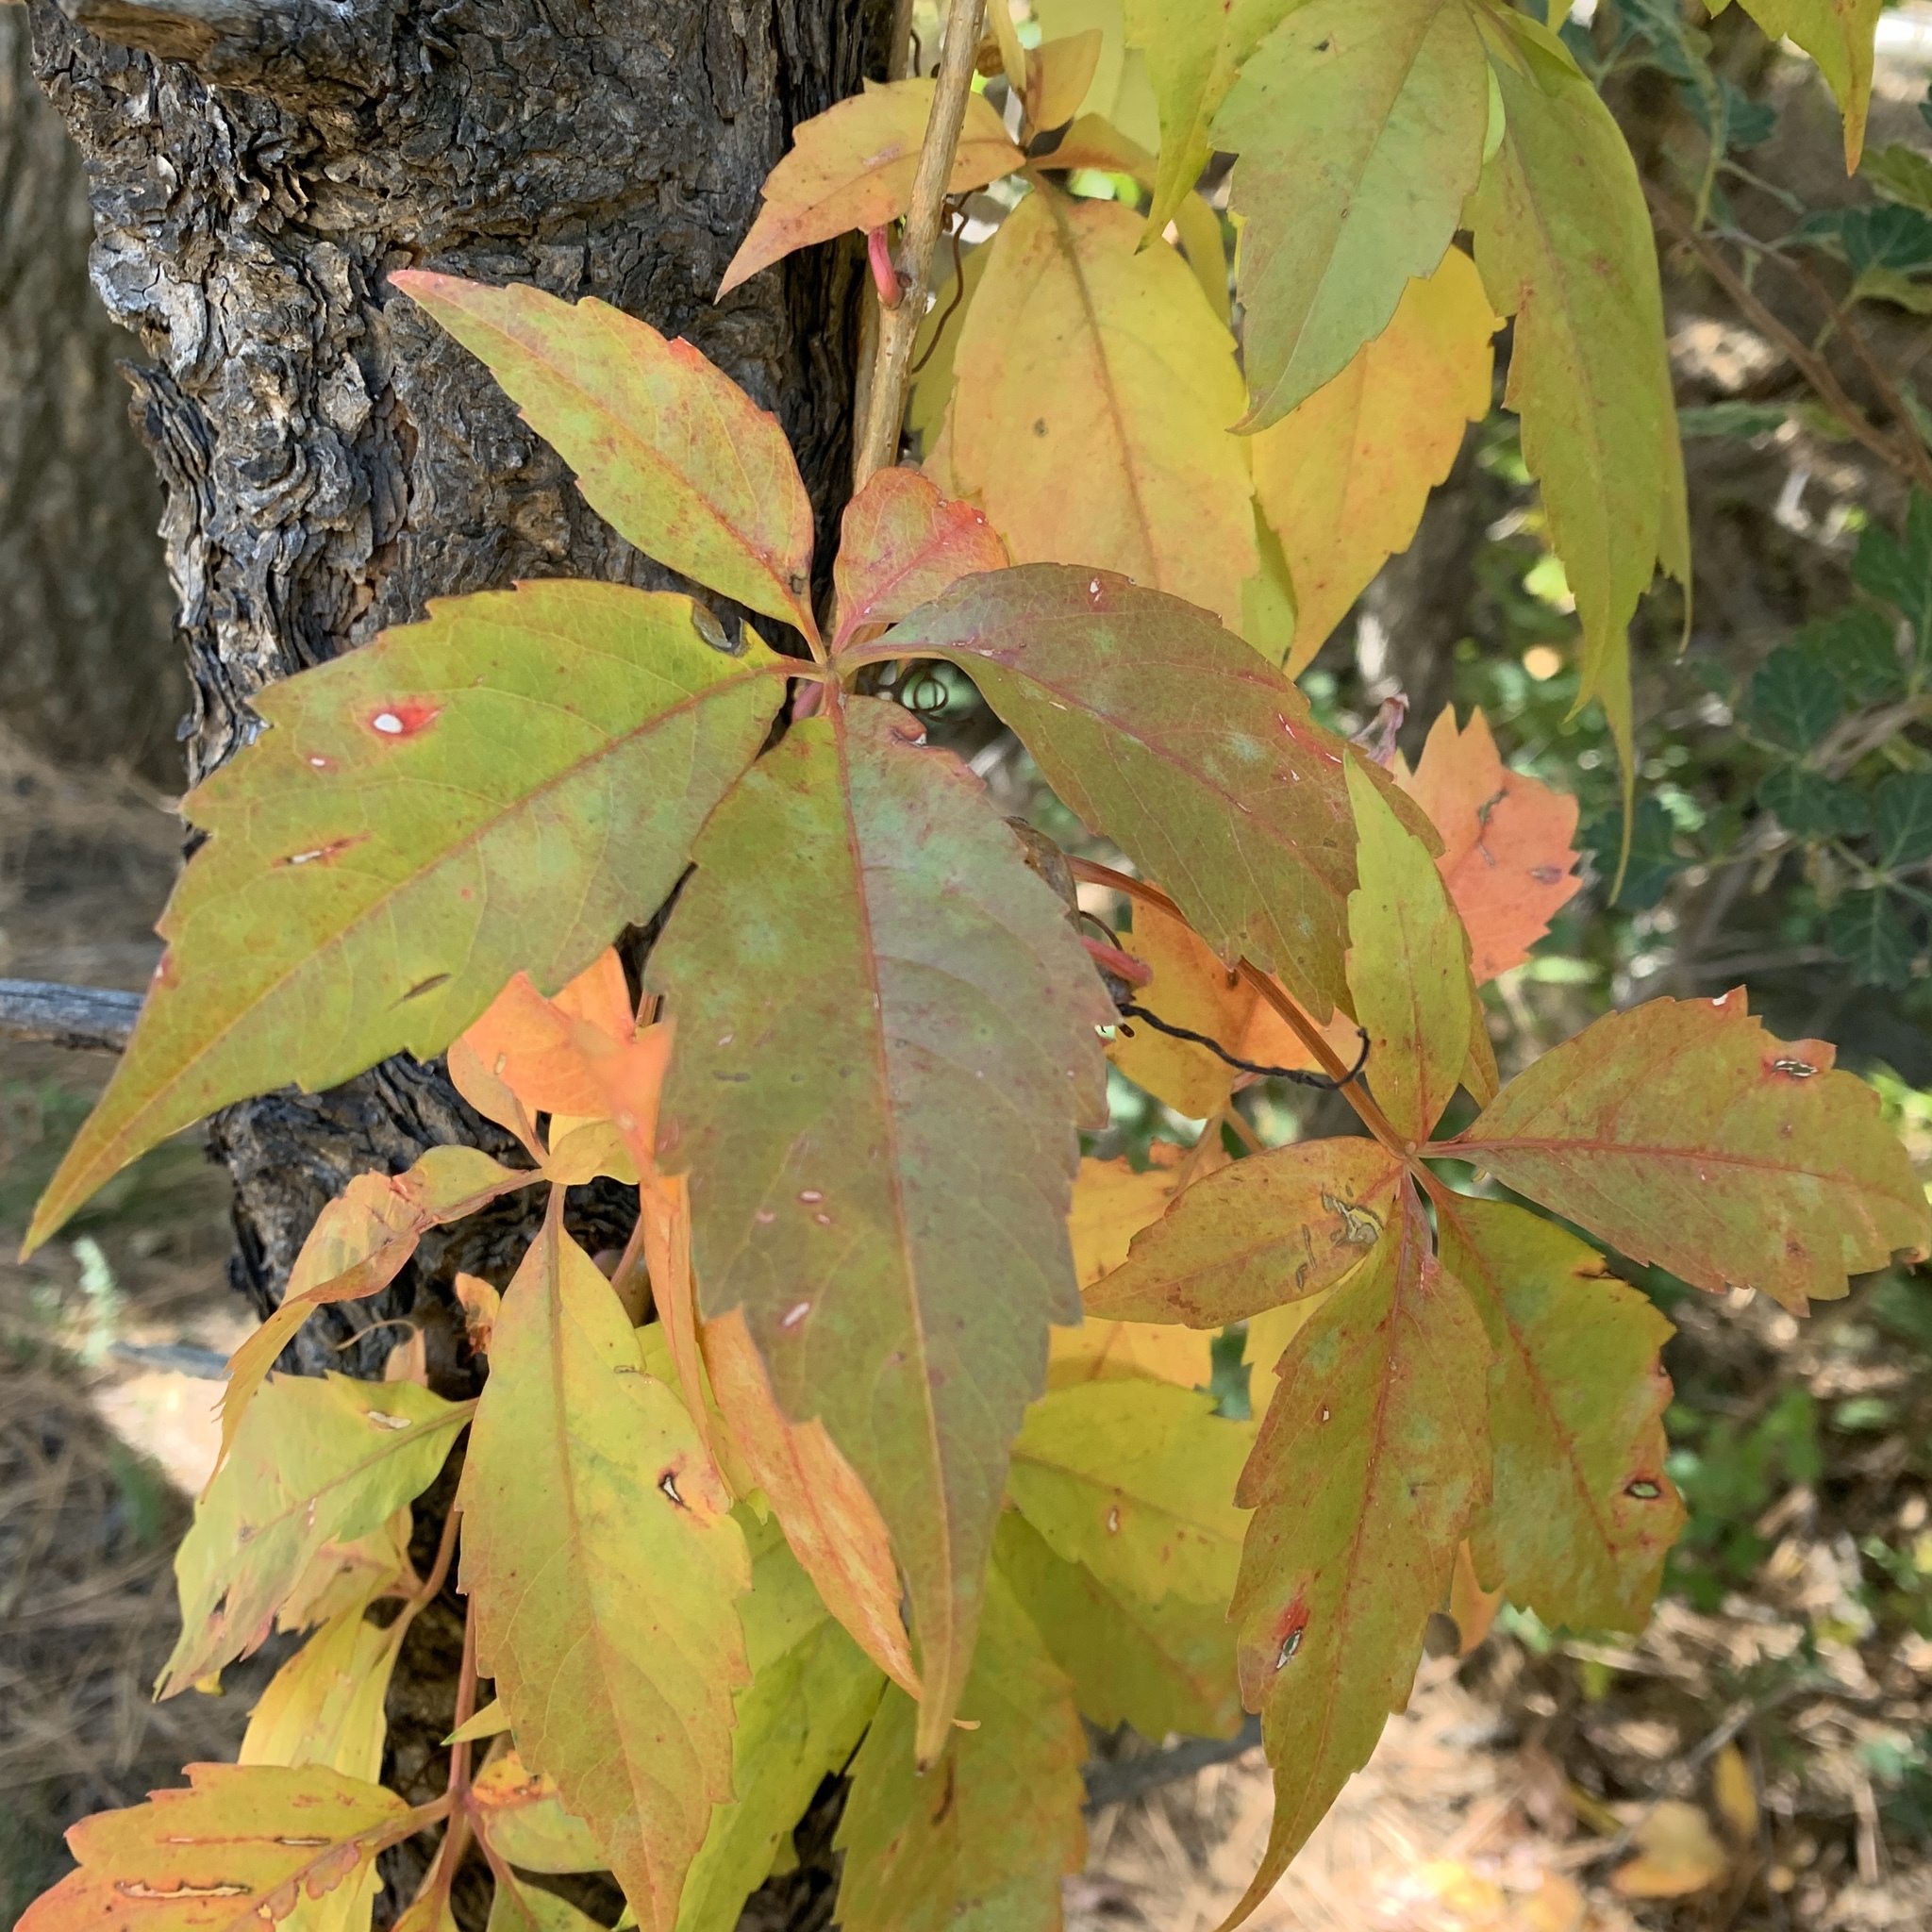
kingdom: Plantae
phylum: Tracheophyta
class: Magnoliopsida
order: Vitales
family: Vitaceae
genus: Parthenocissus
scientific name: Parthenocissus quinquefolia
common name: Virginia-creeper
